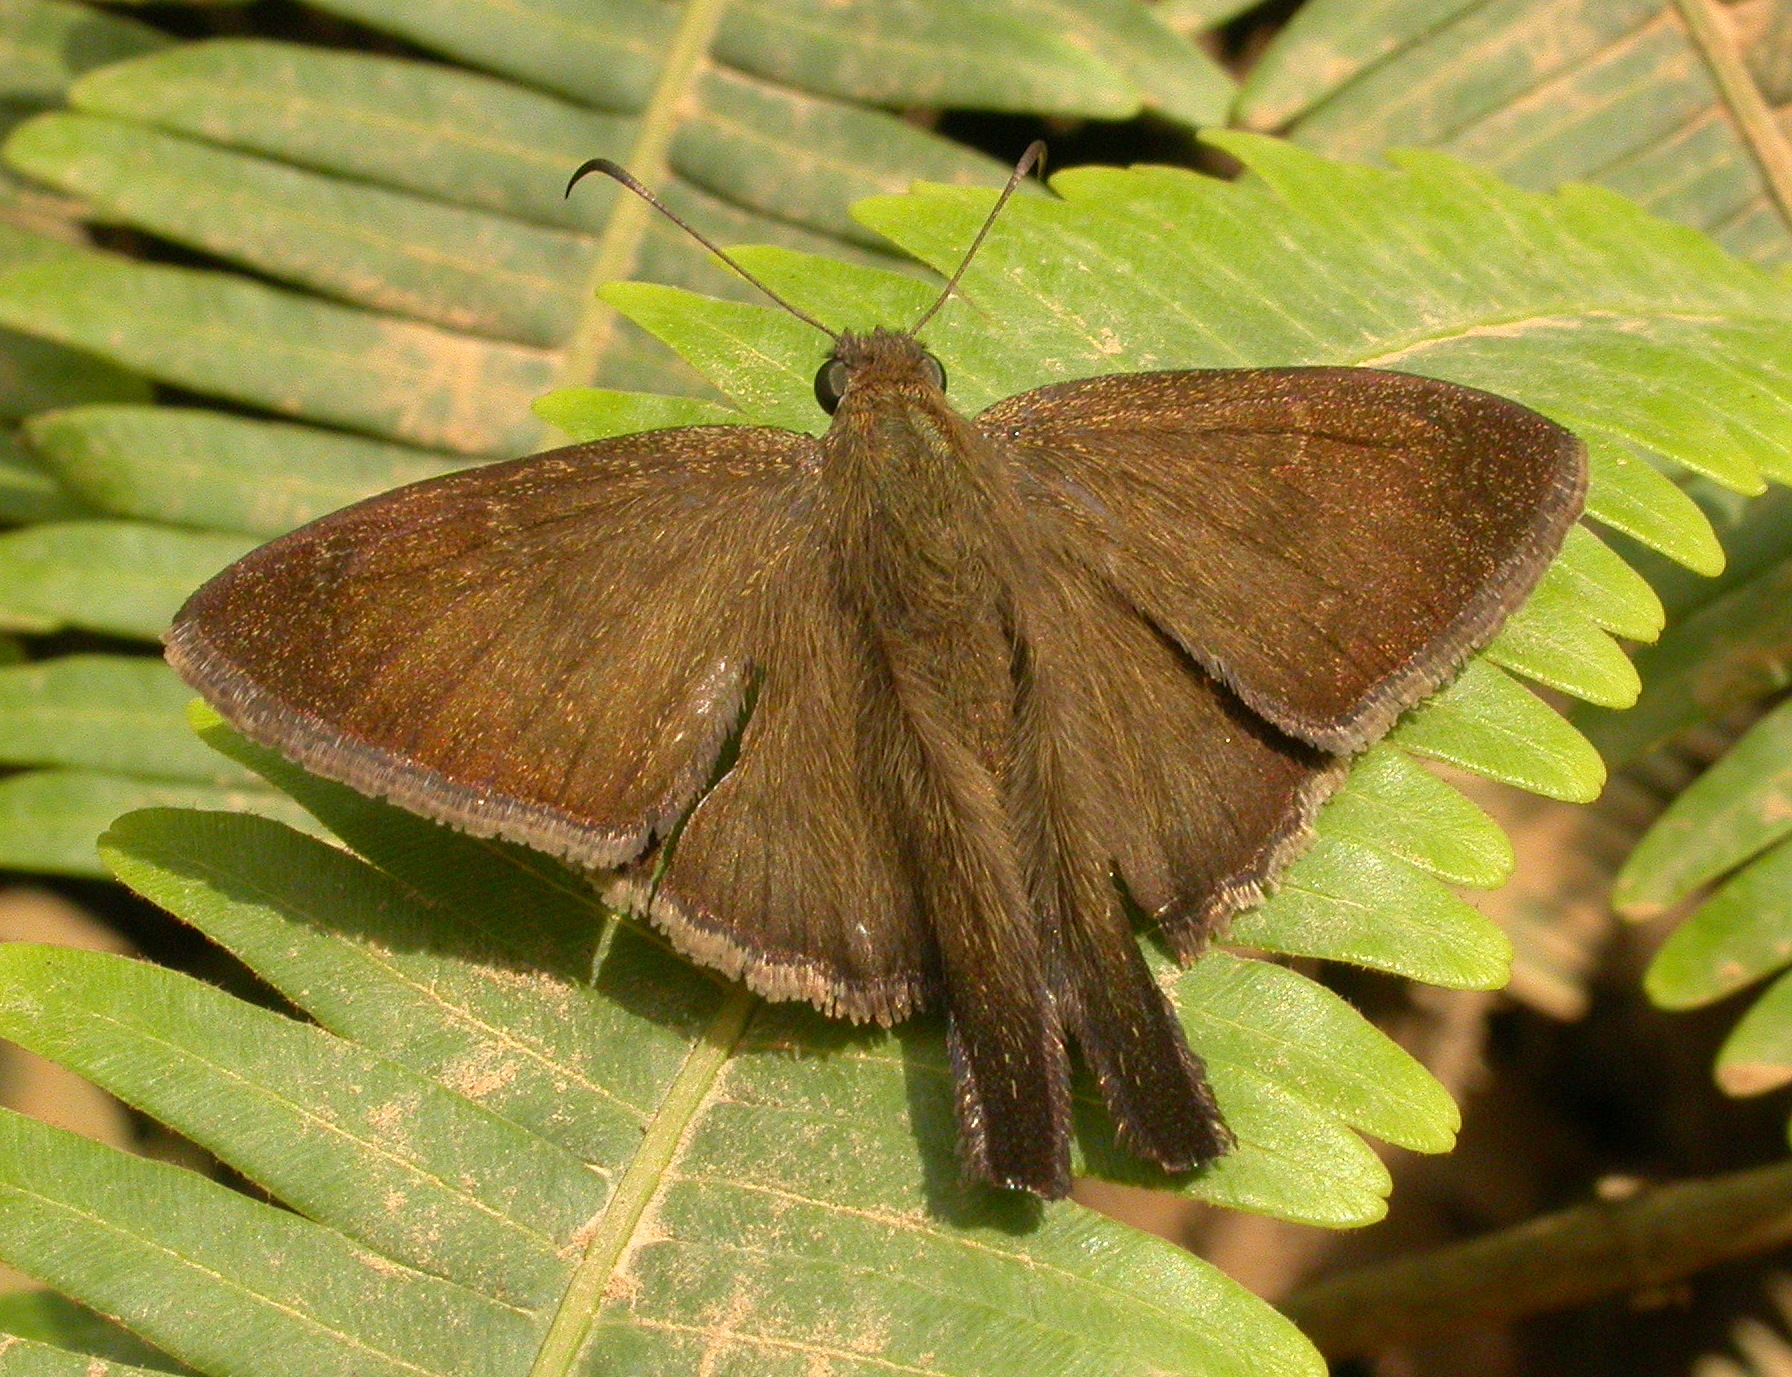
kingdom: Animalia
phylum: Arthropoda
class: Insecta
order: Lepidoptera
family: Hesperiidae
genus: Urbanus
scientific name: Urbanus simplicius
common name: Plain longtail
